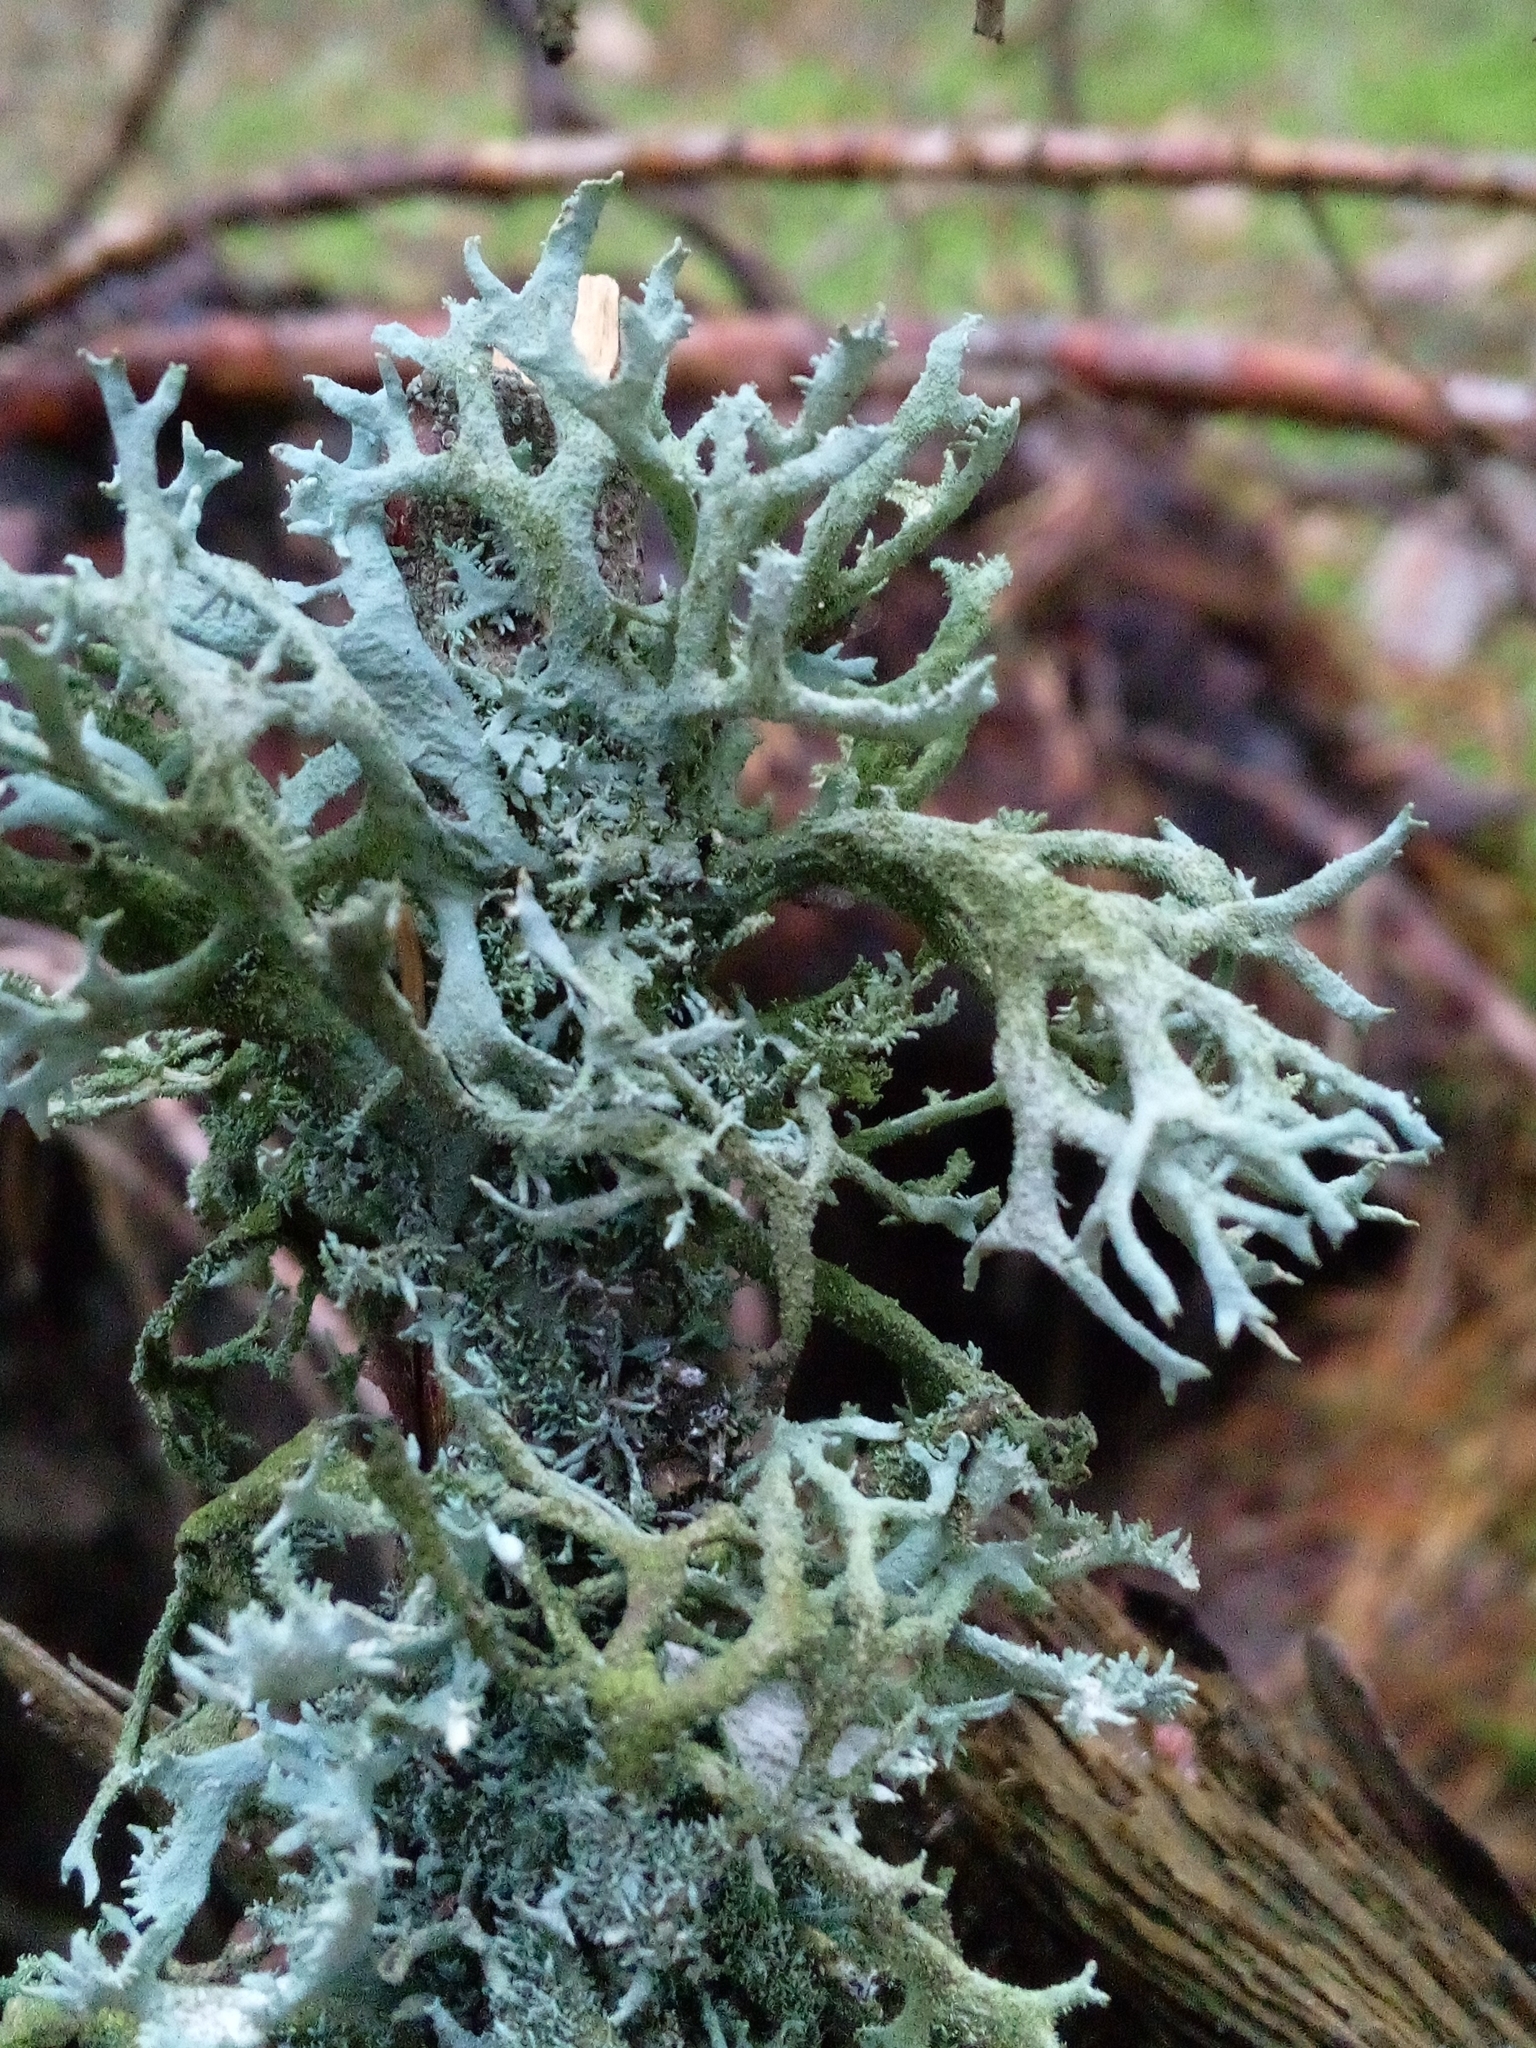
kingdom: Fungi
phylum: Ascomycota
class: Lecanoromycetes
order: Lecanorales
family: Parmeliaceae
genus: Pseudevernia
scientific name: Pseudevernia furfuracea
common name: Tree moss
